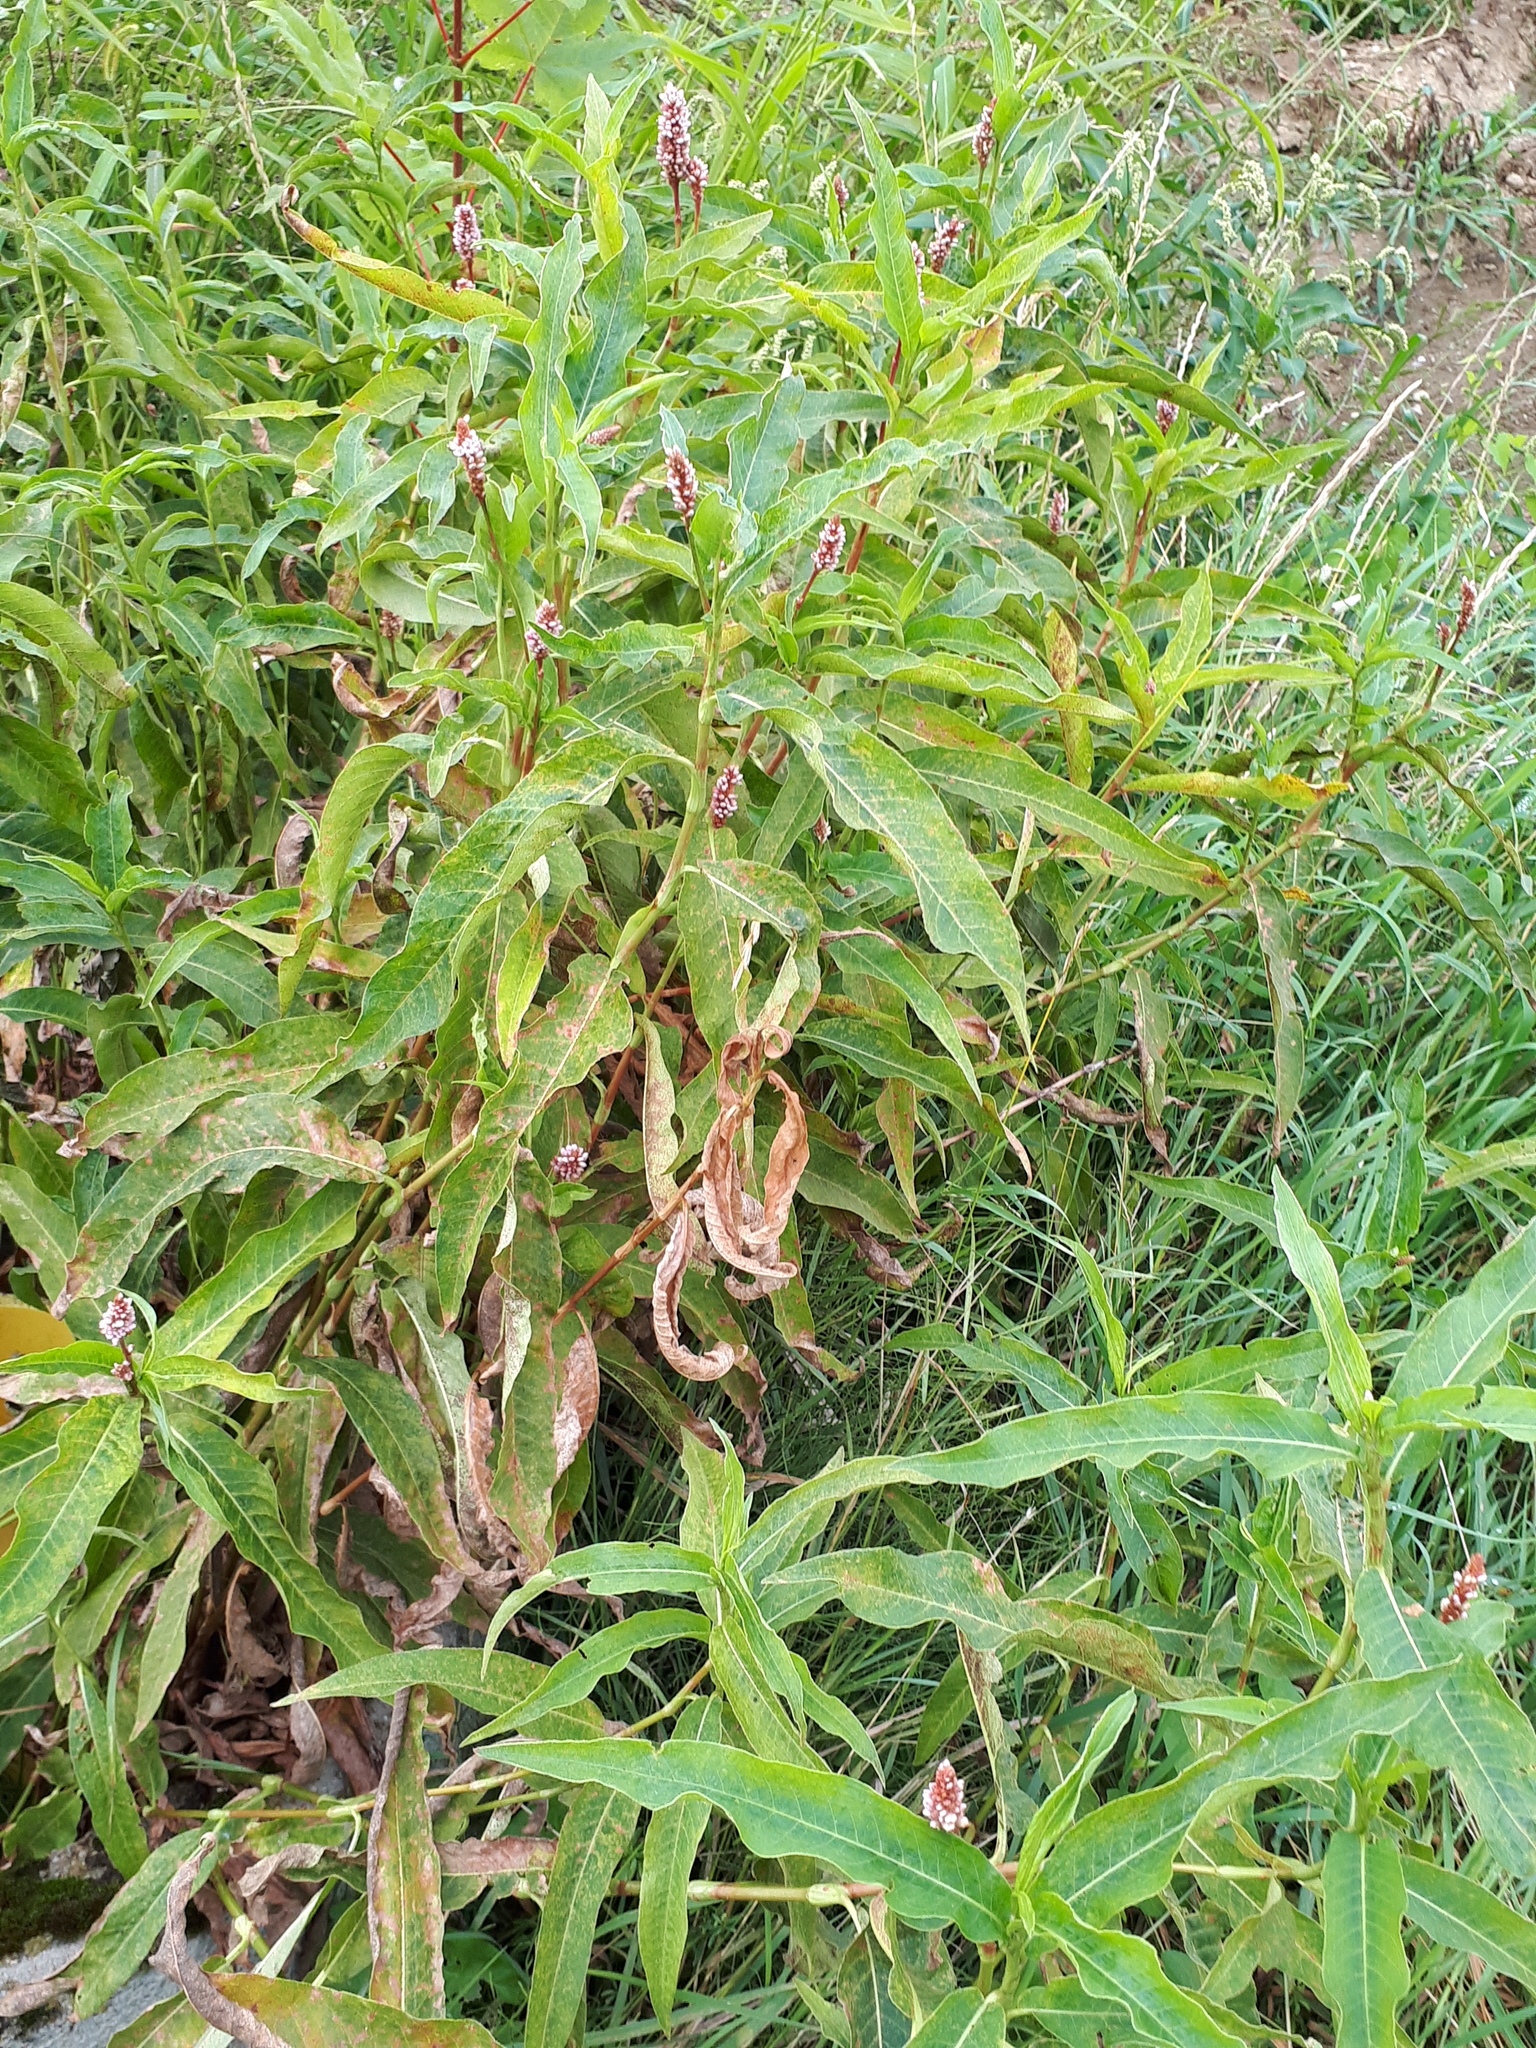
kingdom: Plantae
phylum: Tracheophyta
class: Magnoliopsida
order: Caryophyllales
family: Polygonaceae
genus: Persicaria
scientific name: Persicaria amphibia
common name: Amphibious bistort
